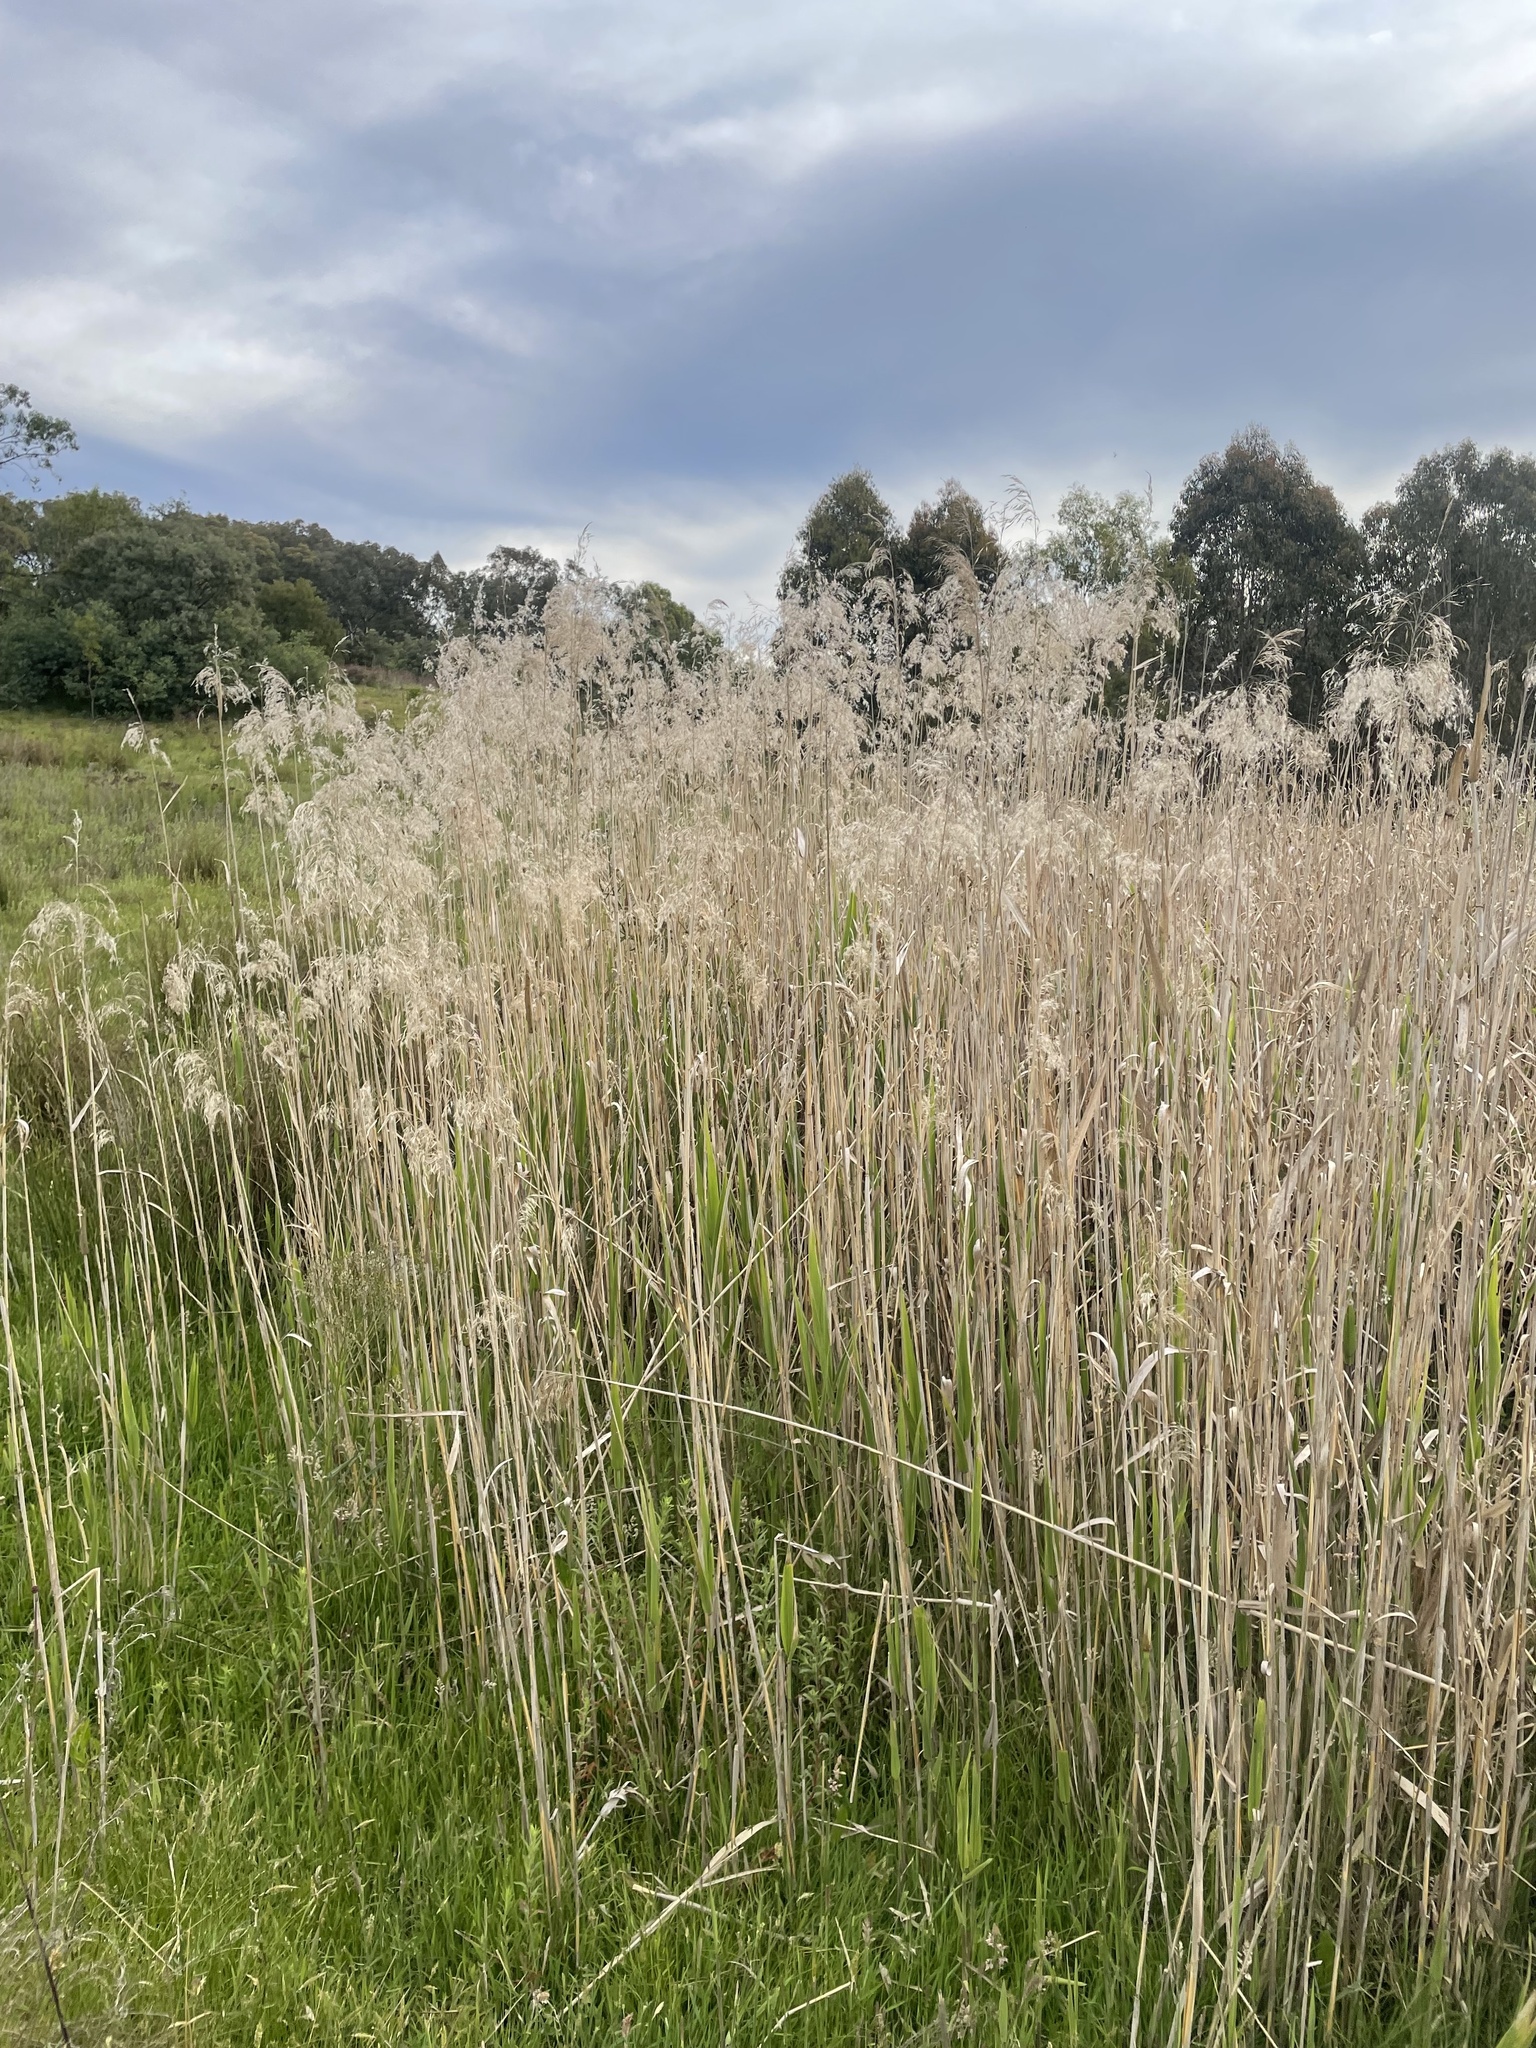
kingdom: Plantae
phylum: Tracheophyta
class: Liliopsida
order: Poales
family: Poaceae
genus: Phragmites
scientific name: Phragmites australis
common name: Common reed
